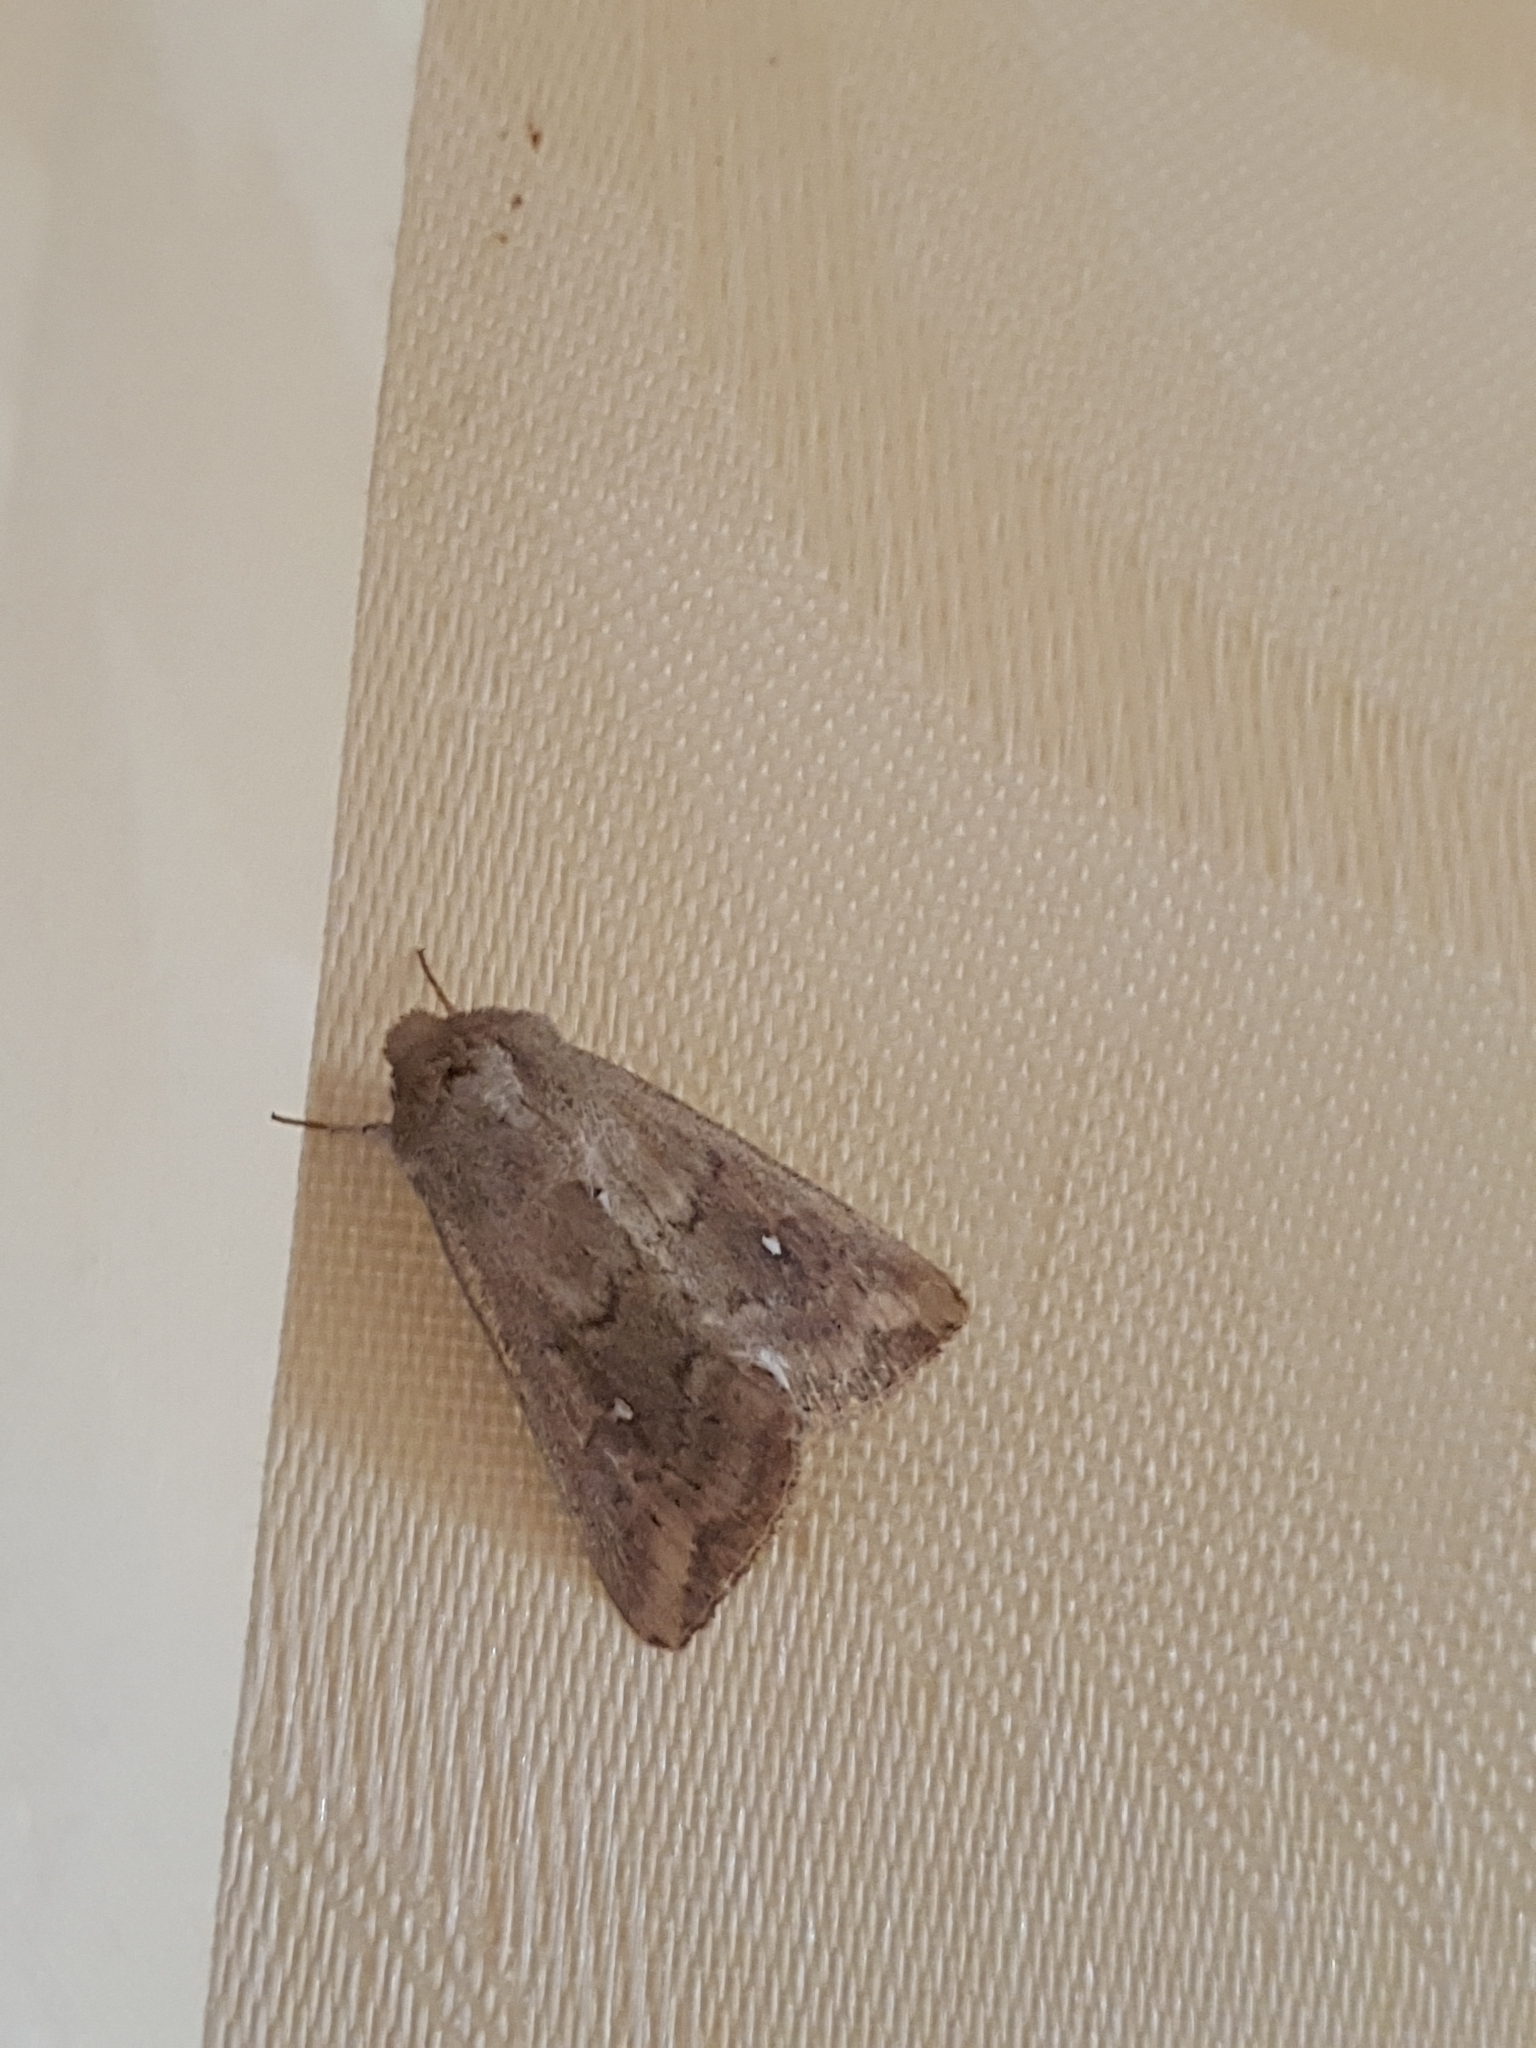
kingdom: Animalia
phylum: Arthropoda
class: Insecta
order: Lepidoptera
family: Noctuidae
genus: Mythimna
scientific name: Mythimna albipuncta
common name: White-point
